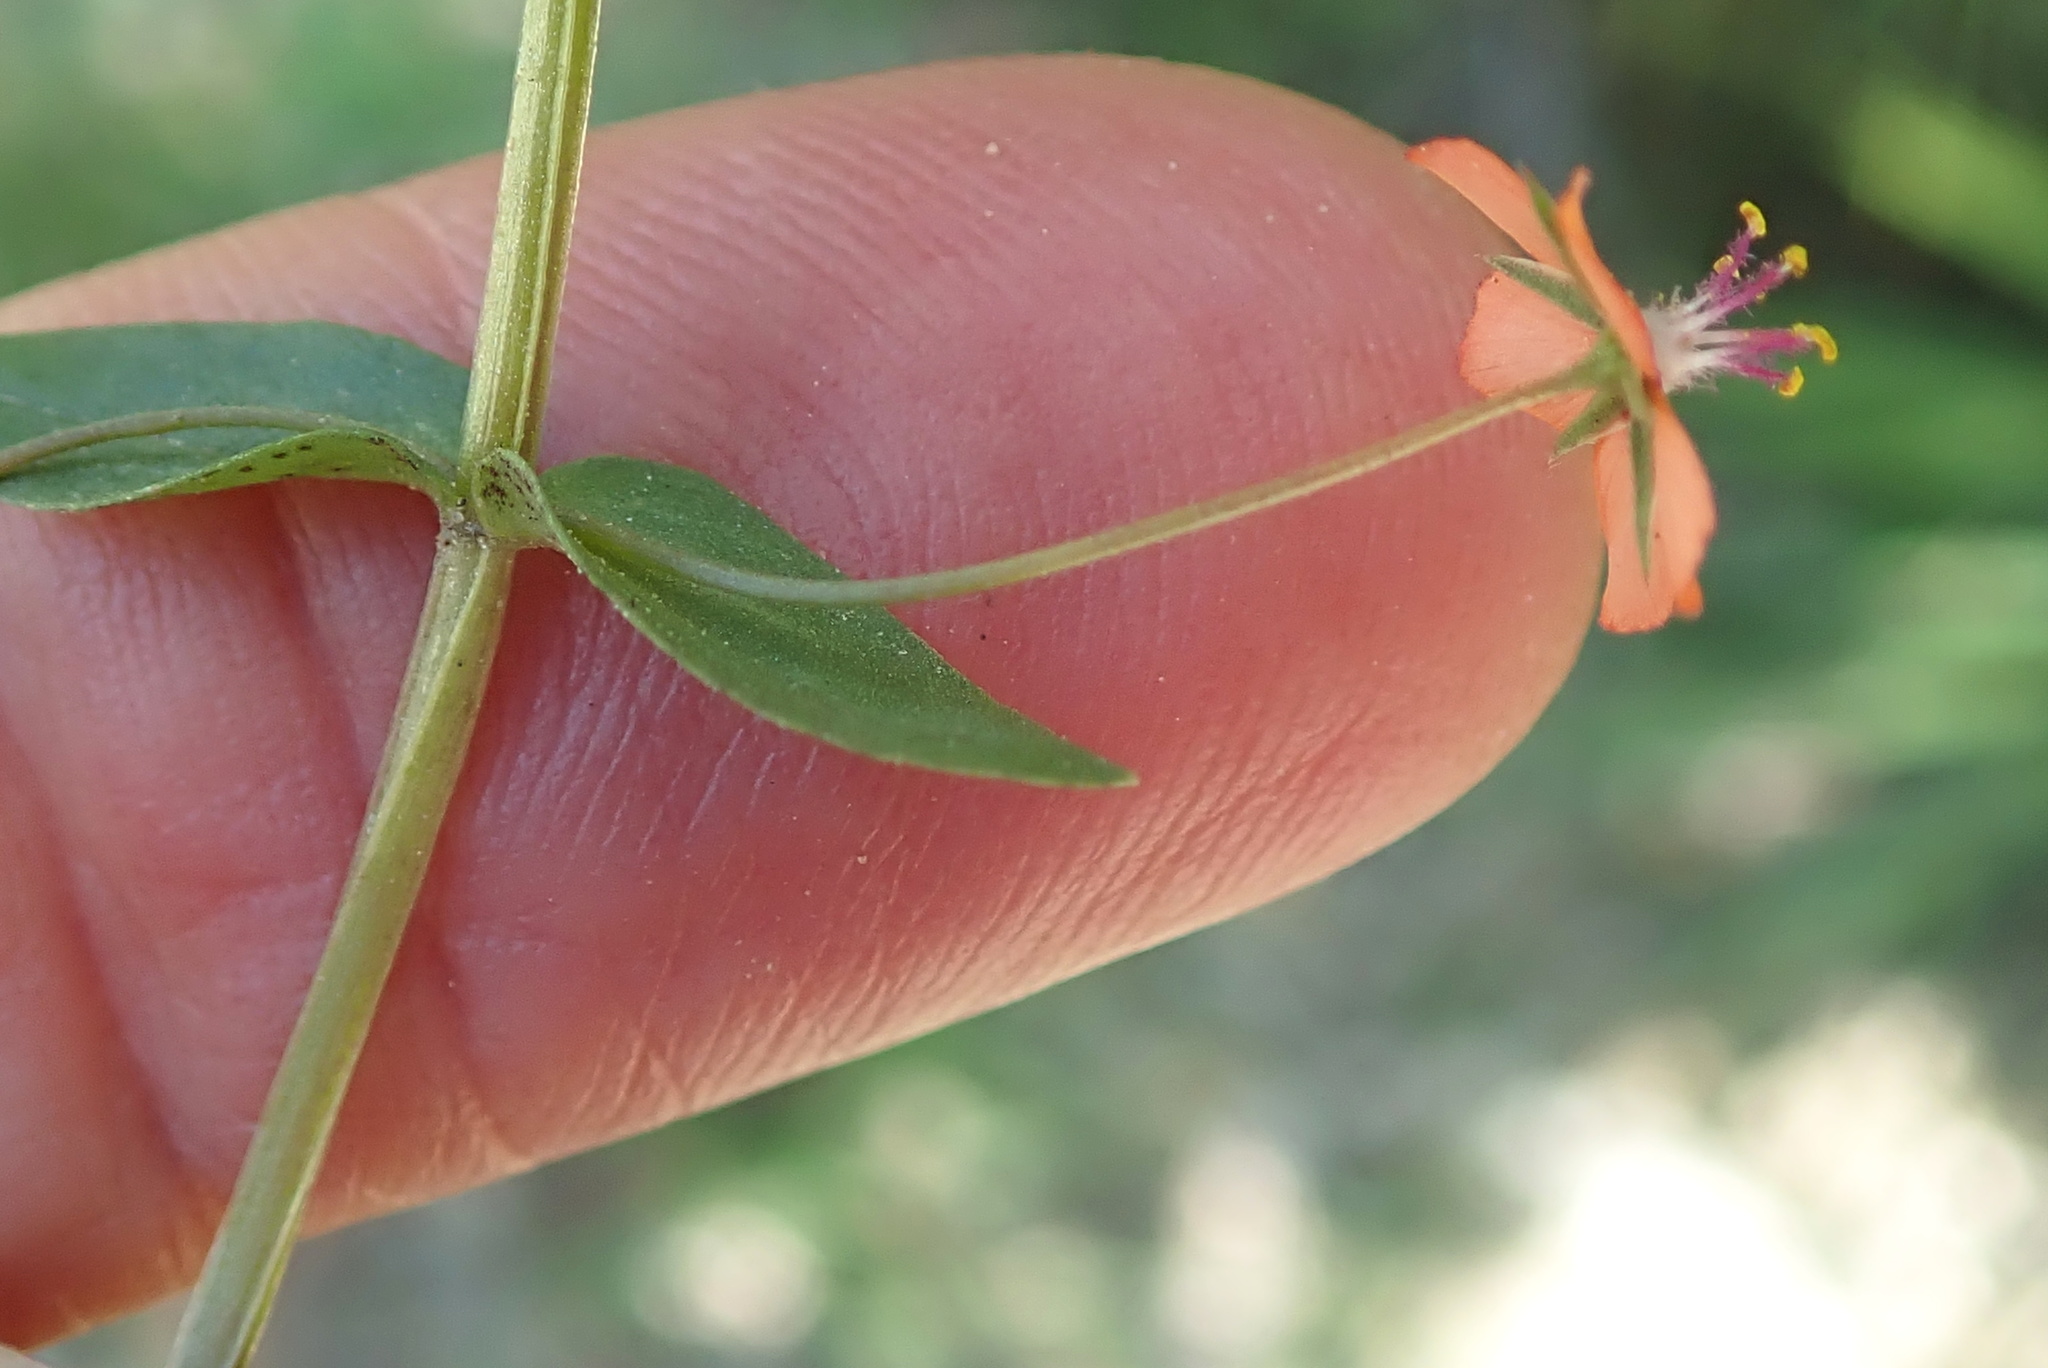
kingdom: Plantae
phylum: Tracheophyta
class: Magnoliopsida
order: Ericales
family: Primulaceae
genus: Lysimachia
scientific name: Lysimachia arvensis
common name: Scarlet pimpernel
